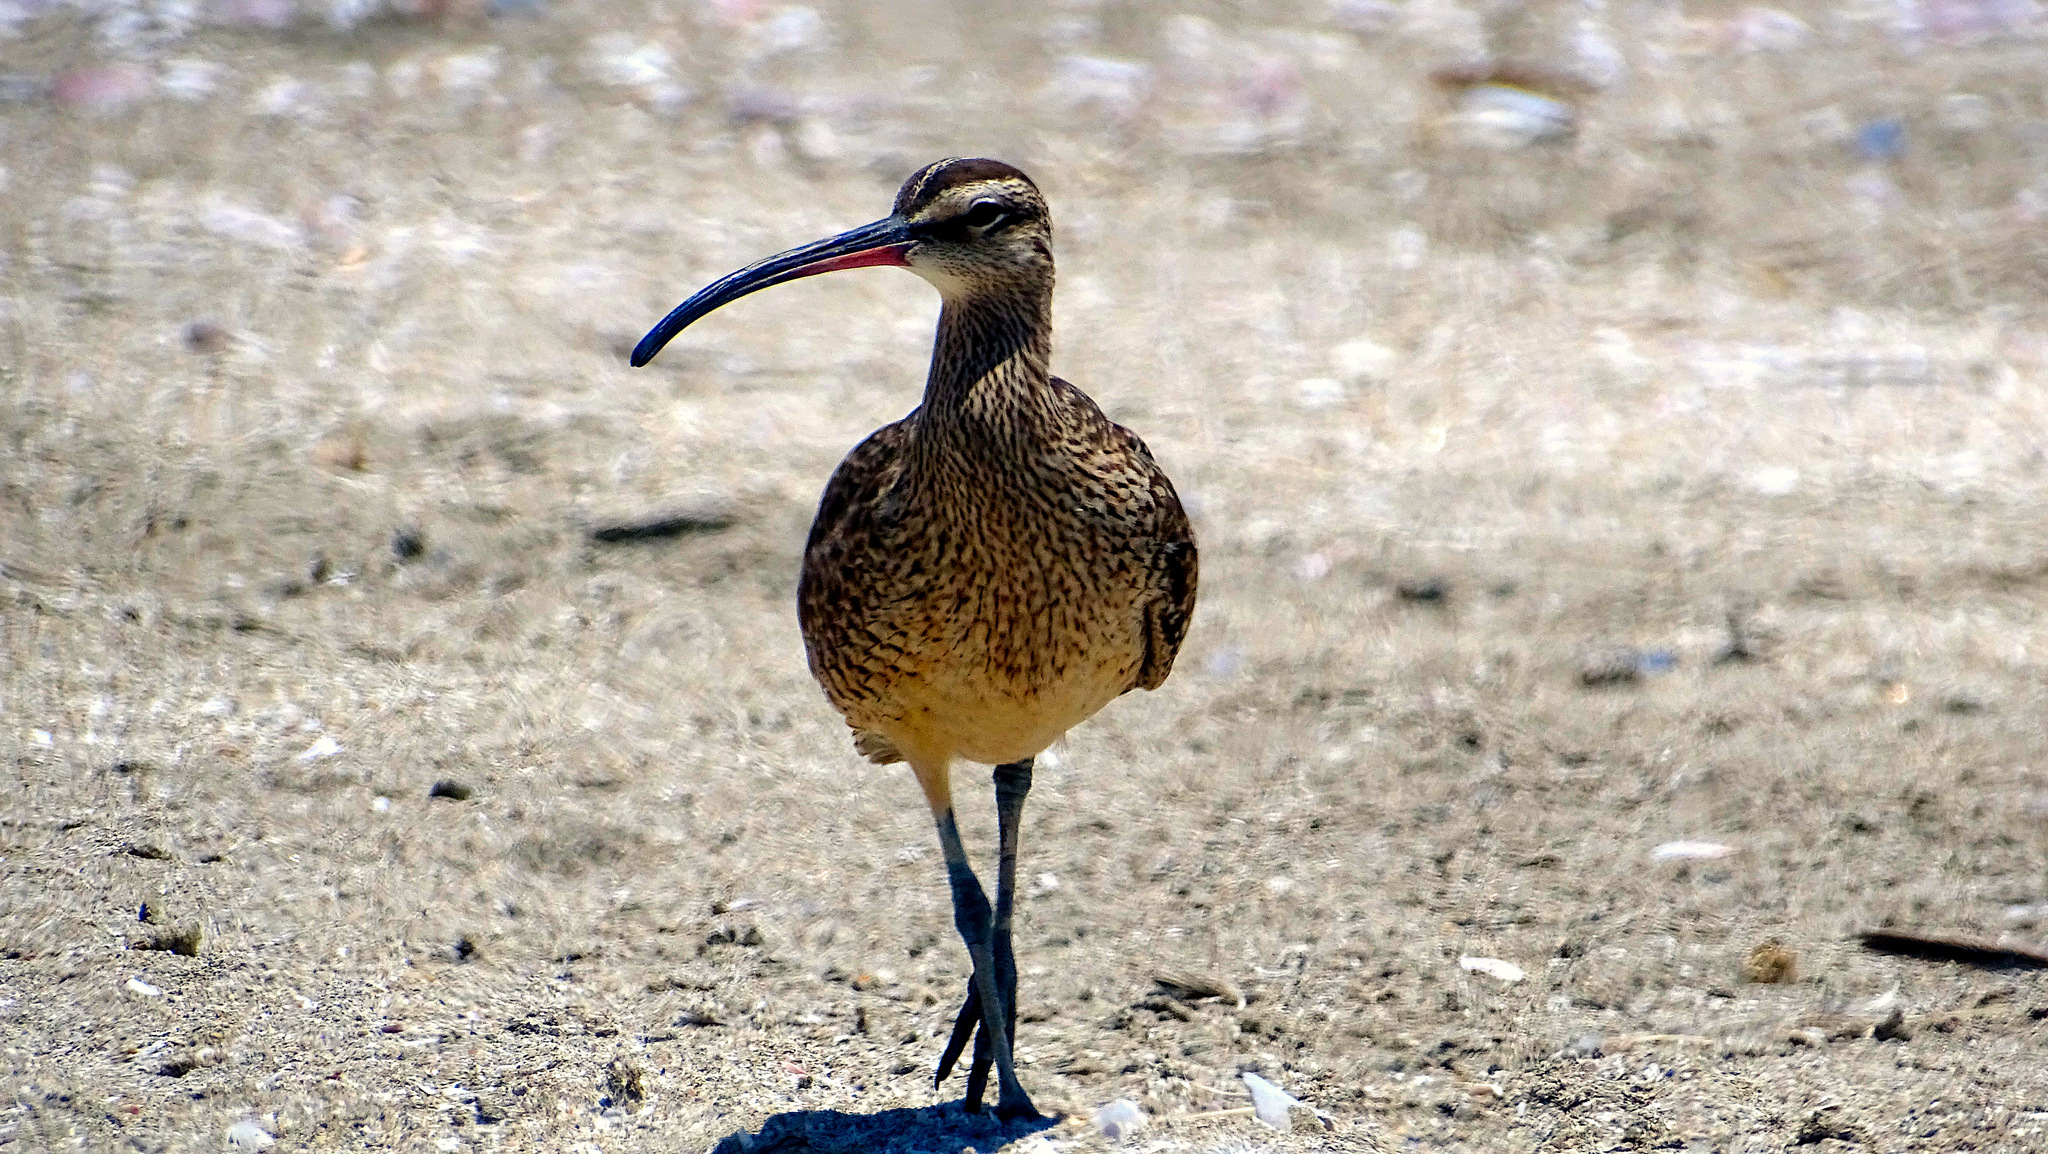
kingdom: Animalia
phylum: Chordata
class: Aves
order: Charadriiformes
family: Scolopacidae
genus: Numenius
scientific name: Numenius phaeopus
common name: Whimbrel
